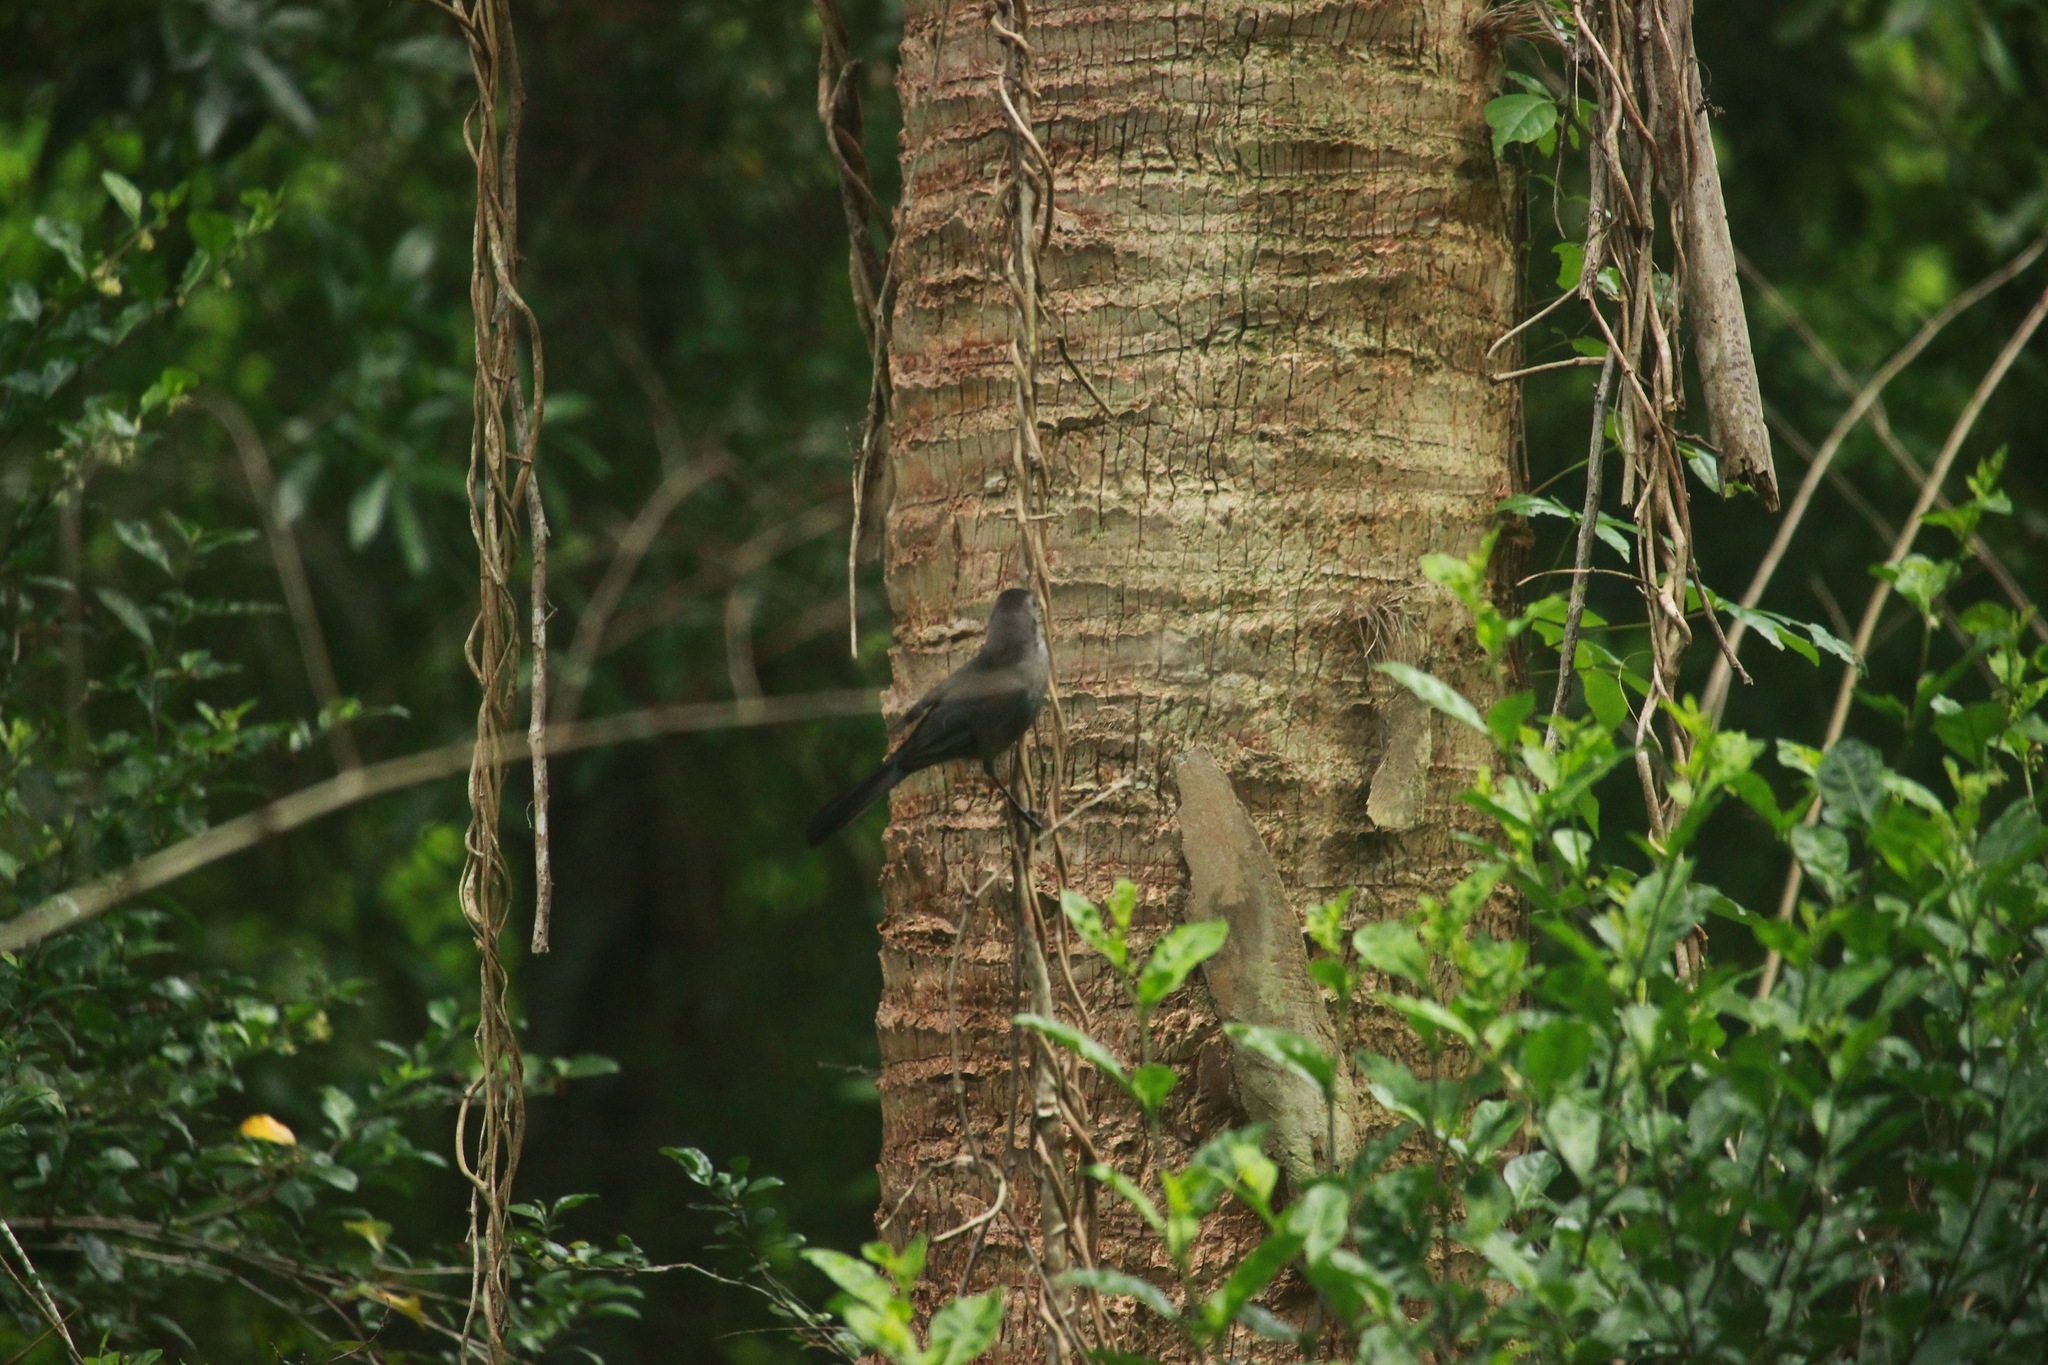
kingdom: Animalia
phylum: Chordata
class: Aves
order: Passeriformes
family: Mimidae
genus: Dumetella
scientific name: Dumetella carolinensis
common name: Gray catbird
